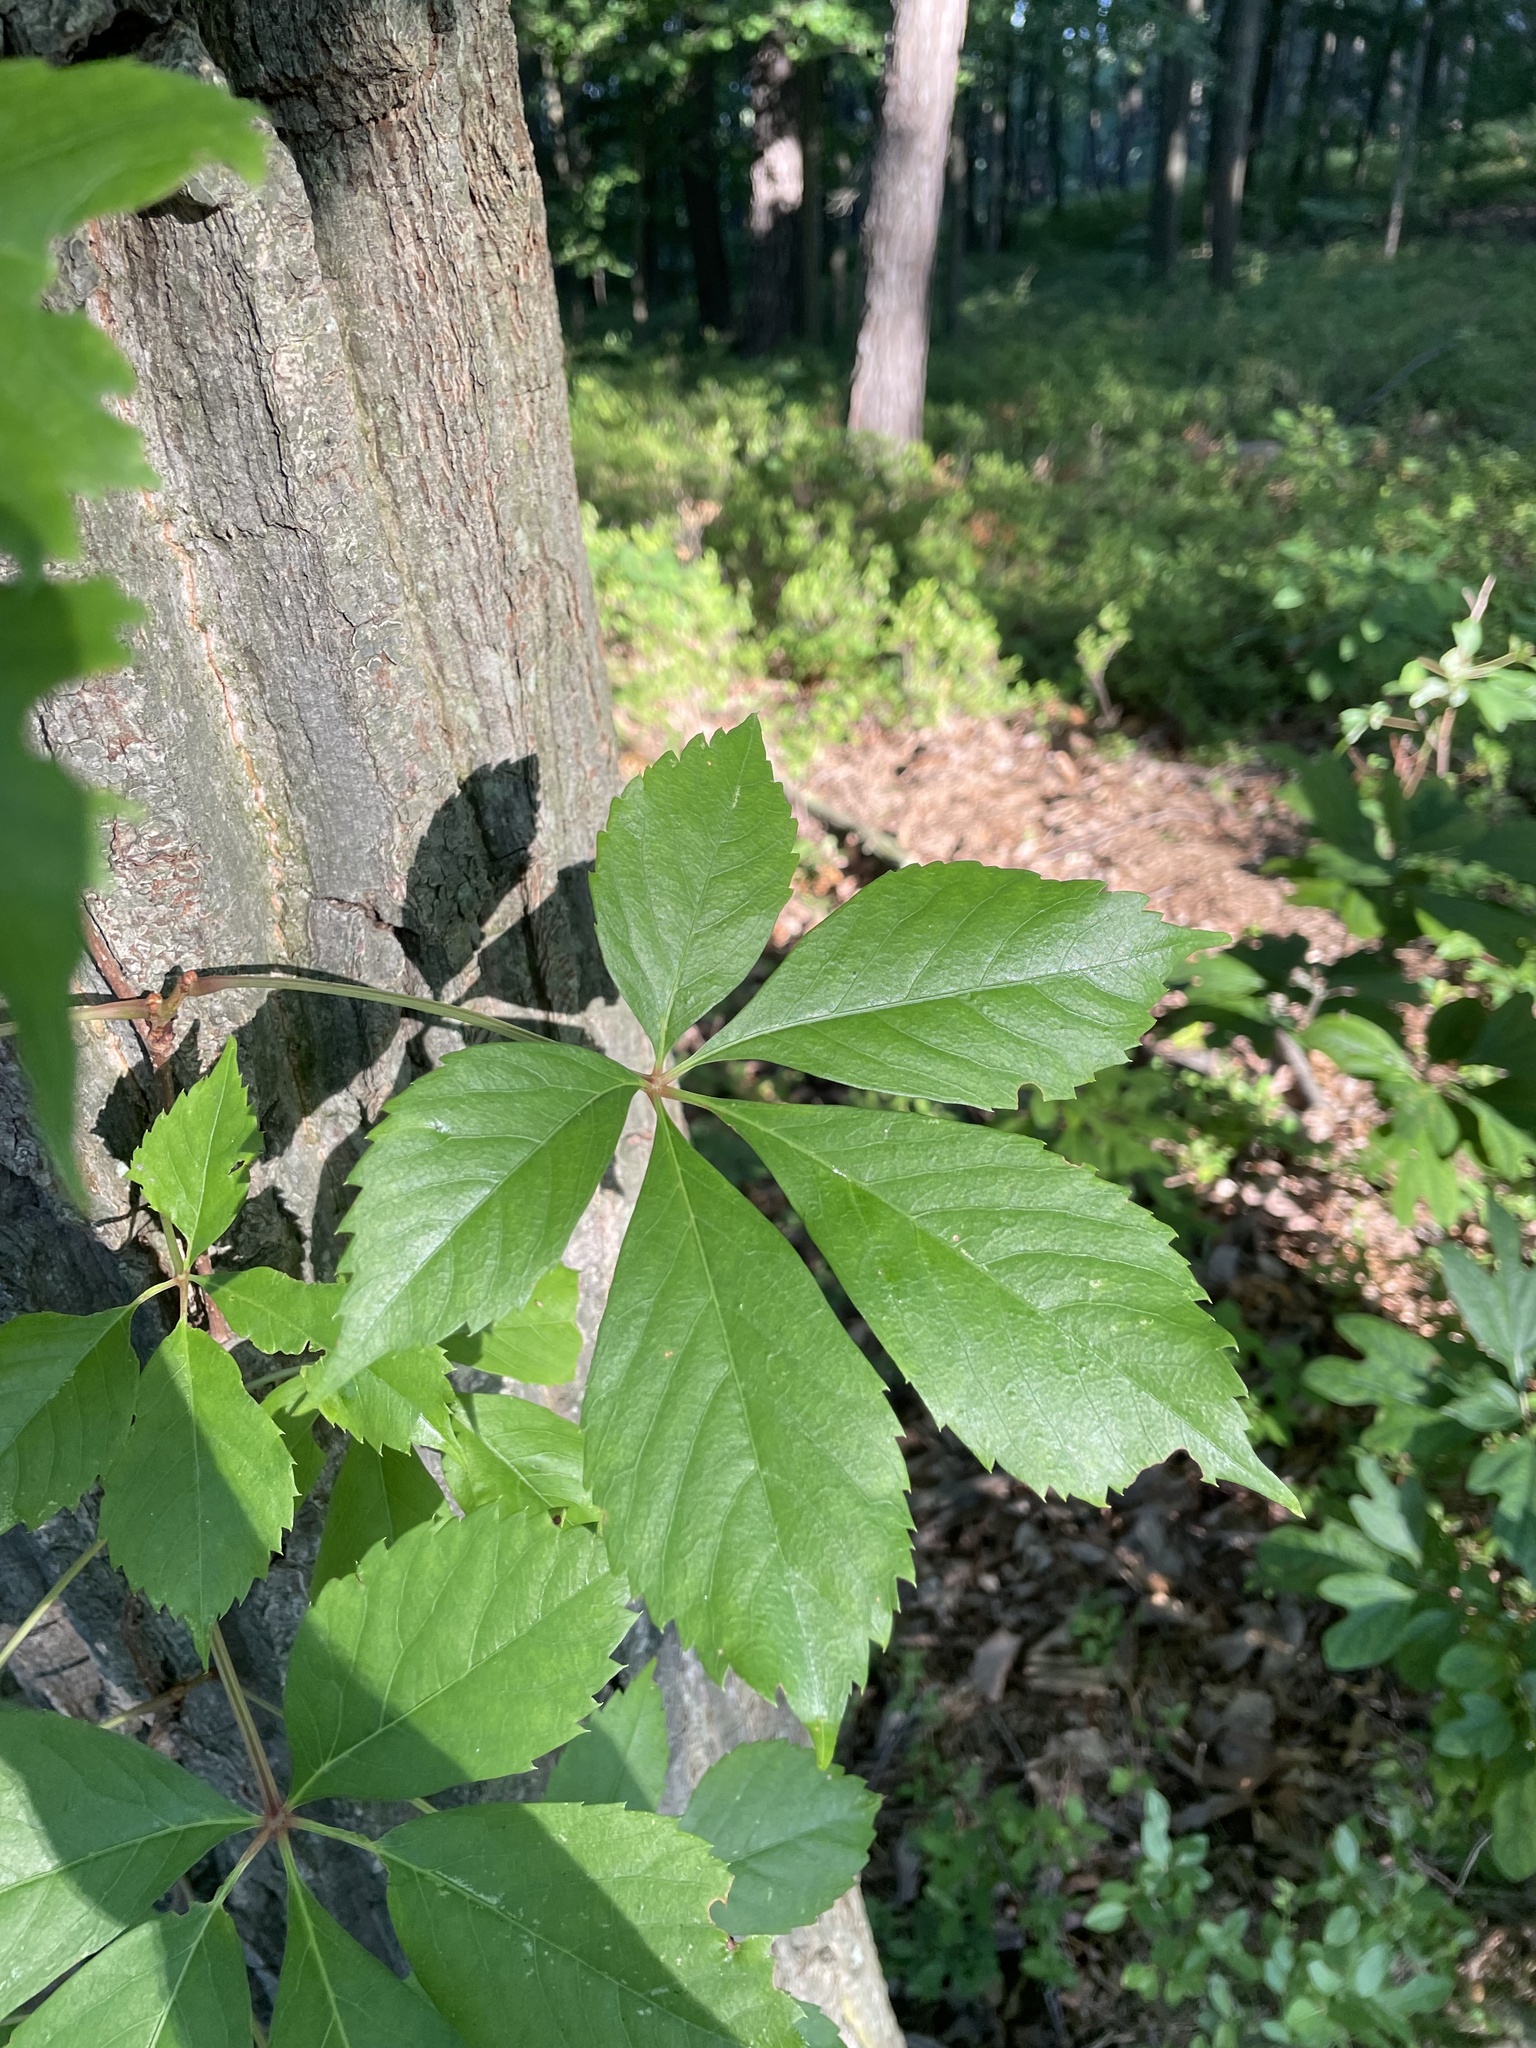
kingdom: Plantae
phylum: Tracheophyta
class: Magnoliopsida
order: Vitales
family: Vitaceae
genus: Parthenocissus
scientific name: Parthenocissus quinquefolia
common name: Virginia-creeper
